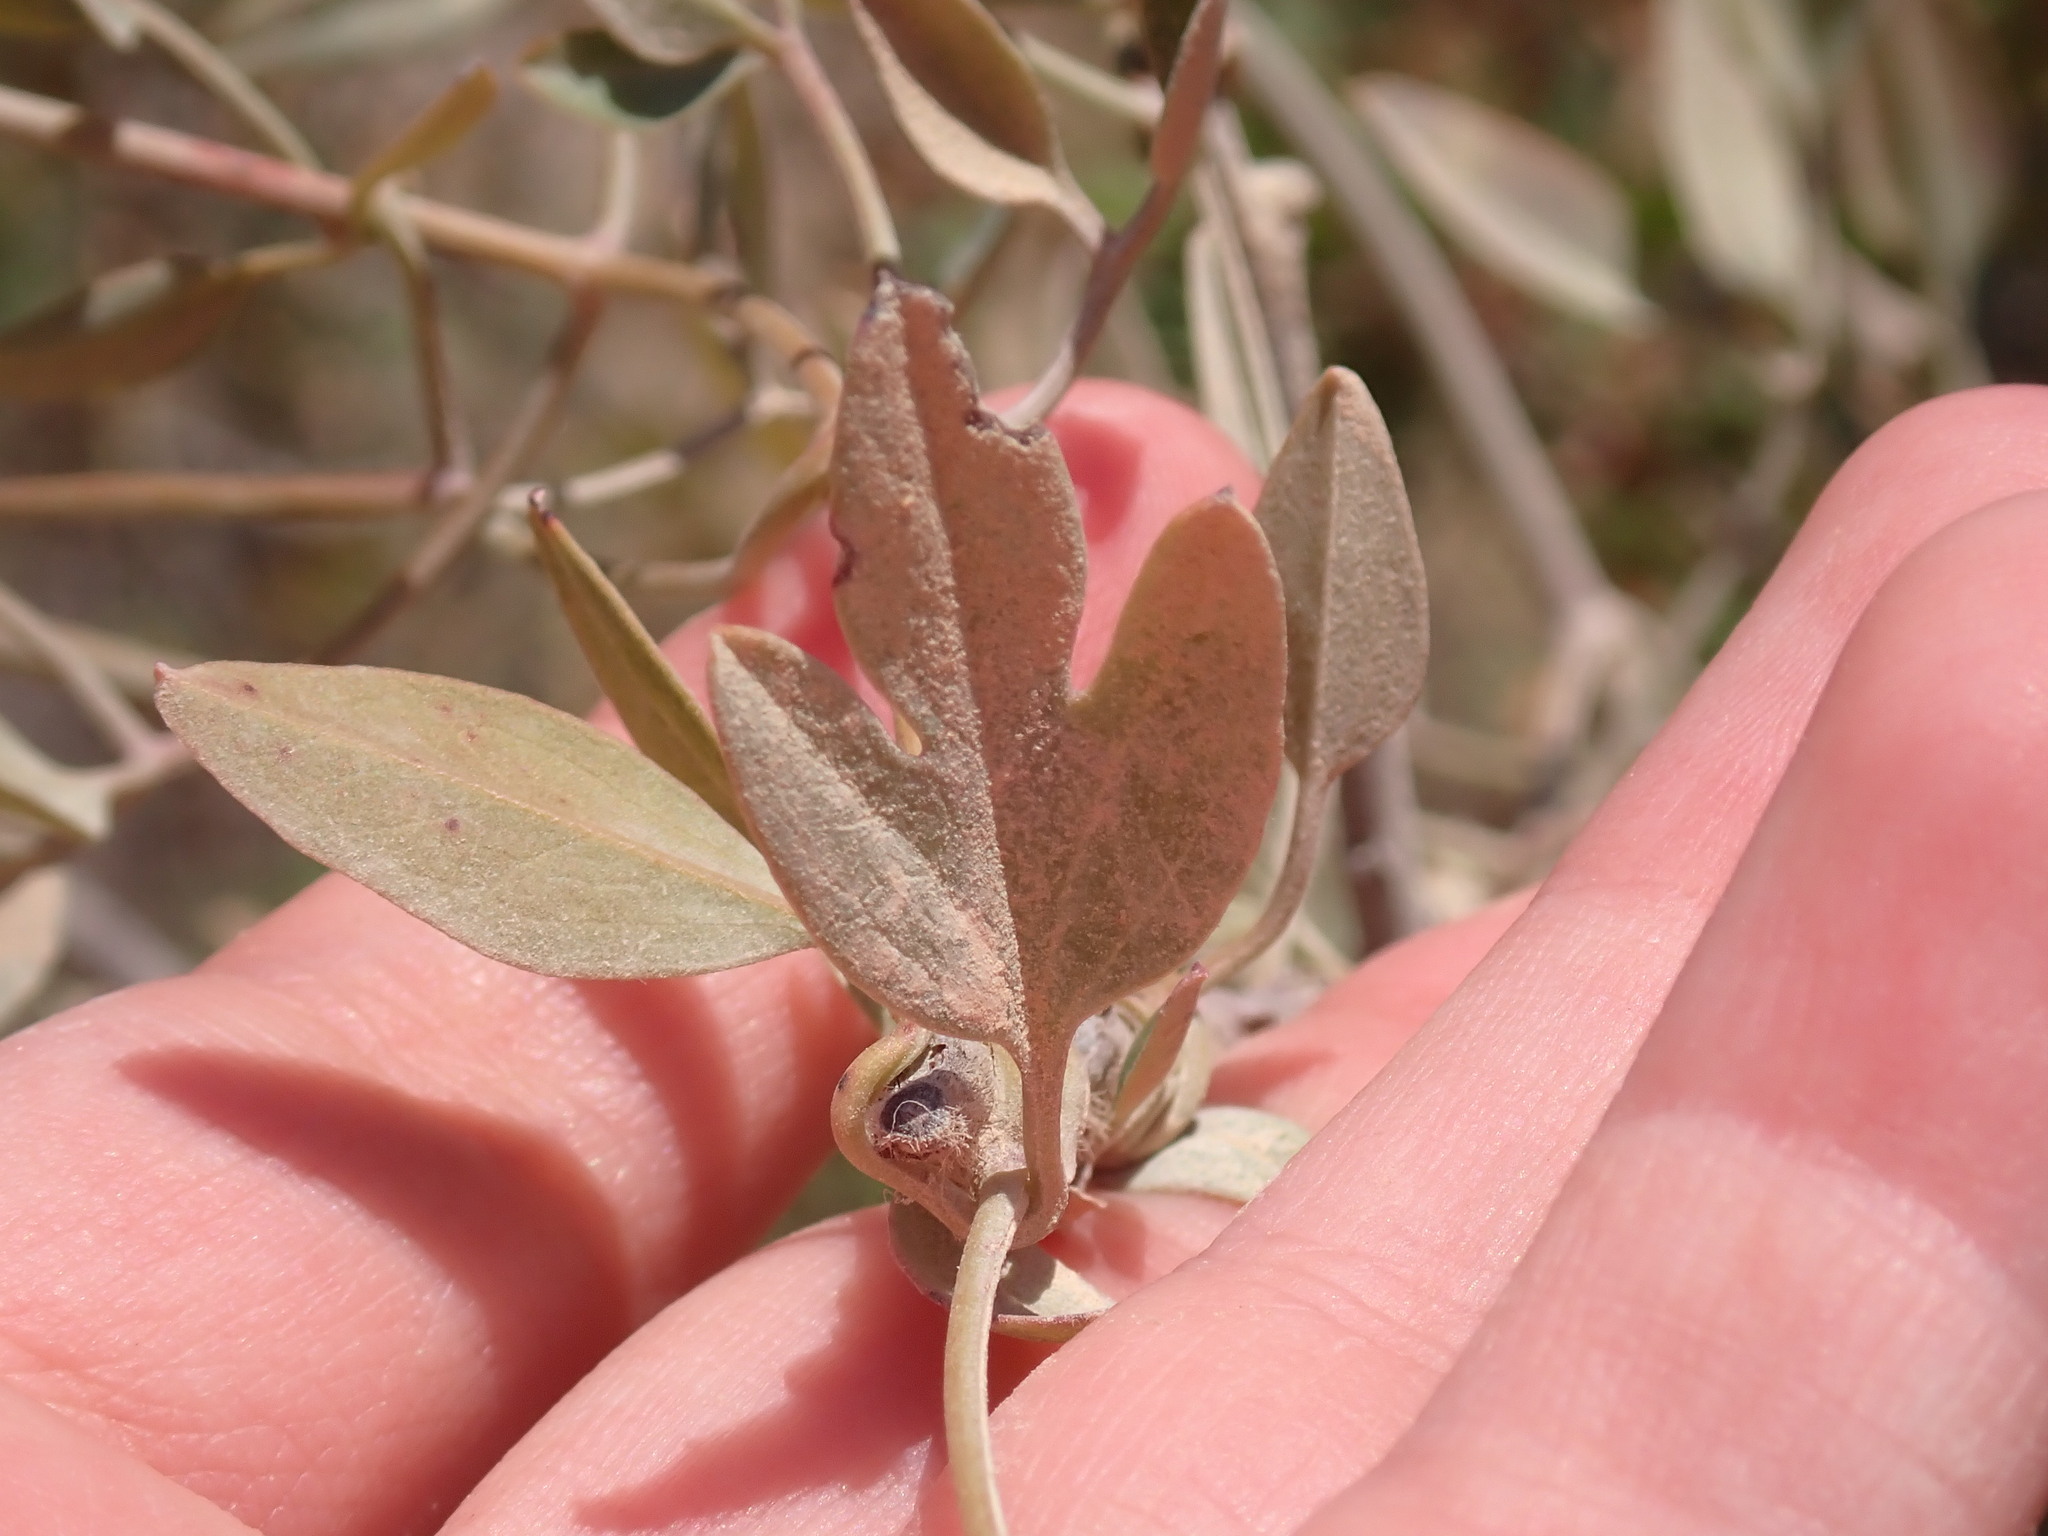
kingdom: Plantae
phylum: Tracheophyta
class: Magnoliopsida
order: Ranunculales
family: Ranunculaceae
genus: Clematis
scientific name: Clematis flammula
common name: Virgin's-bower
